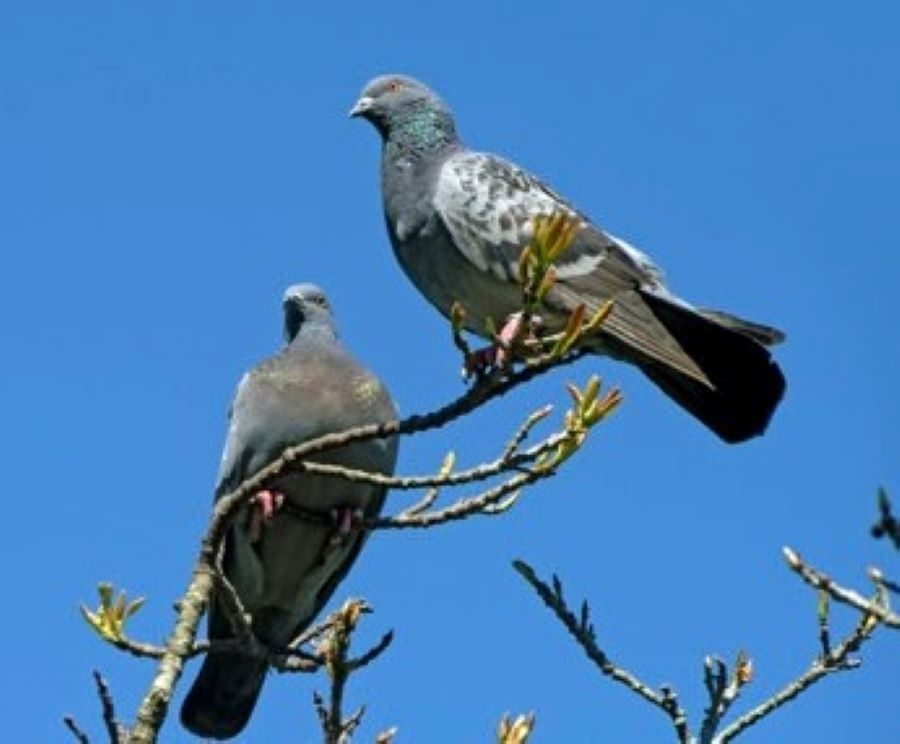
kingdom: Animalia
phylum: Chordata
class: Aves
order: Columbiformes
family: Columbidae
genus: Columba
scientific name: Columba livia
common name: Rock pigeon
